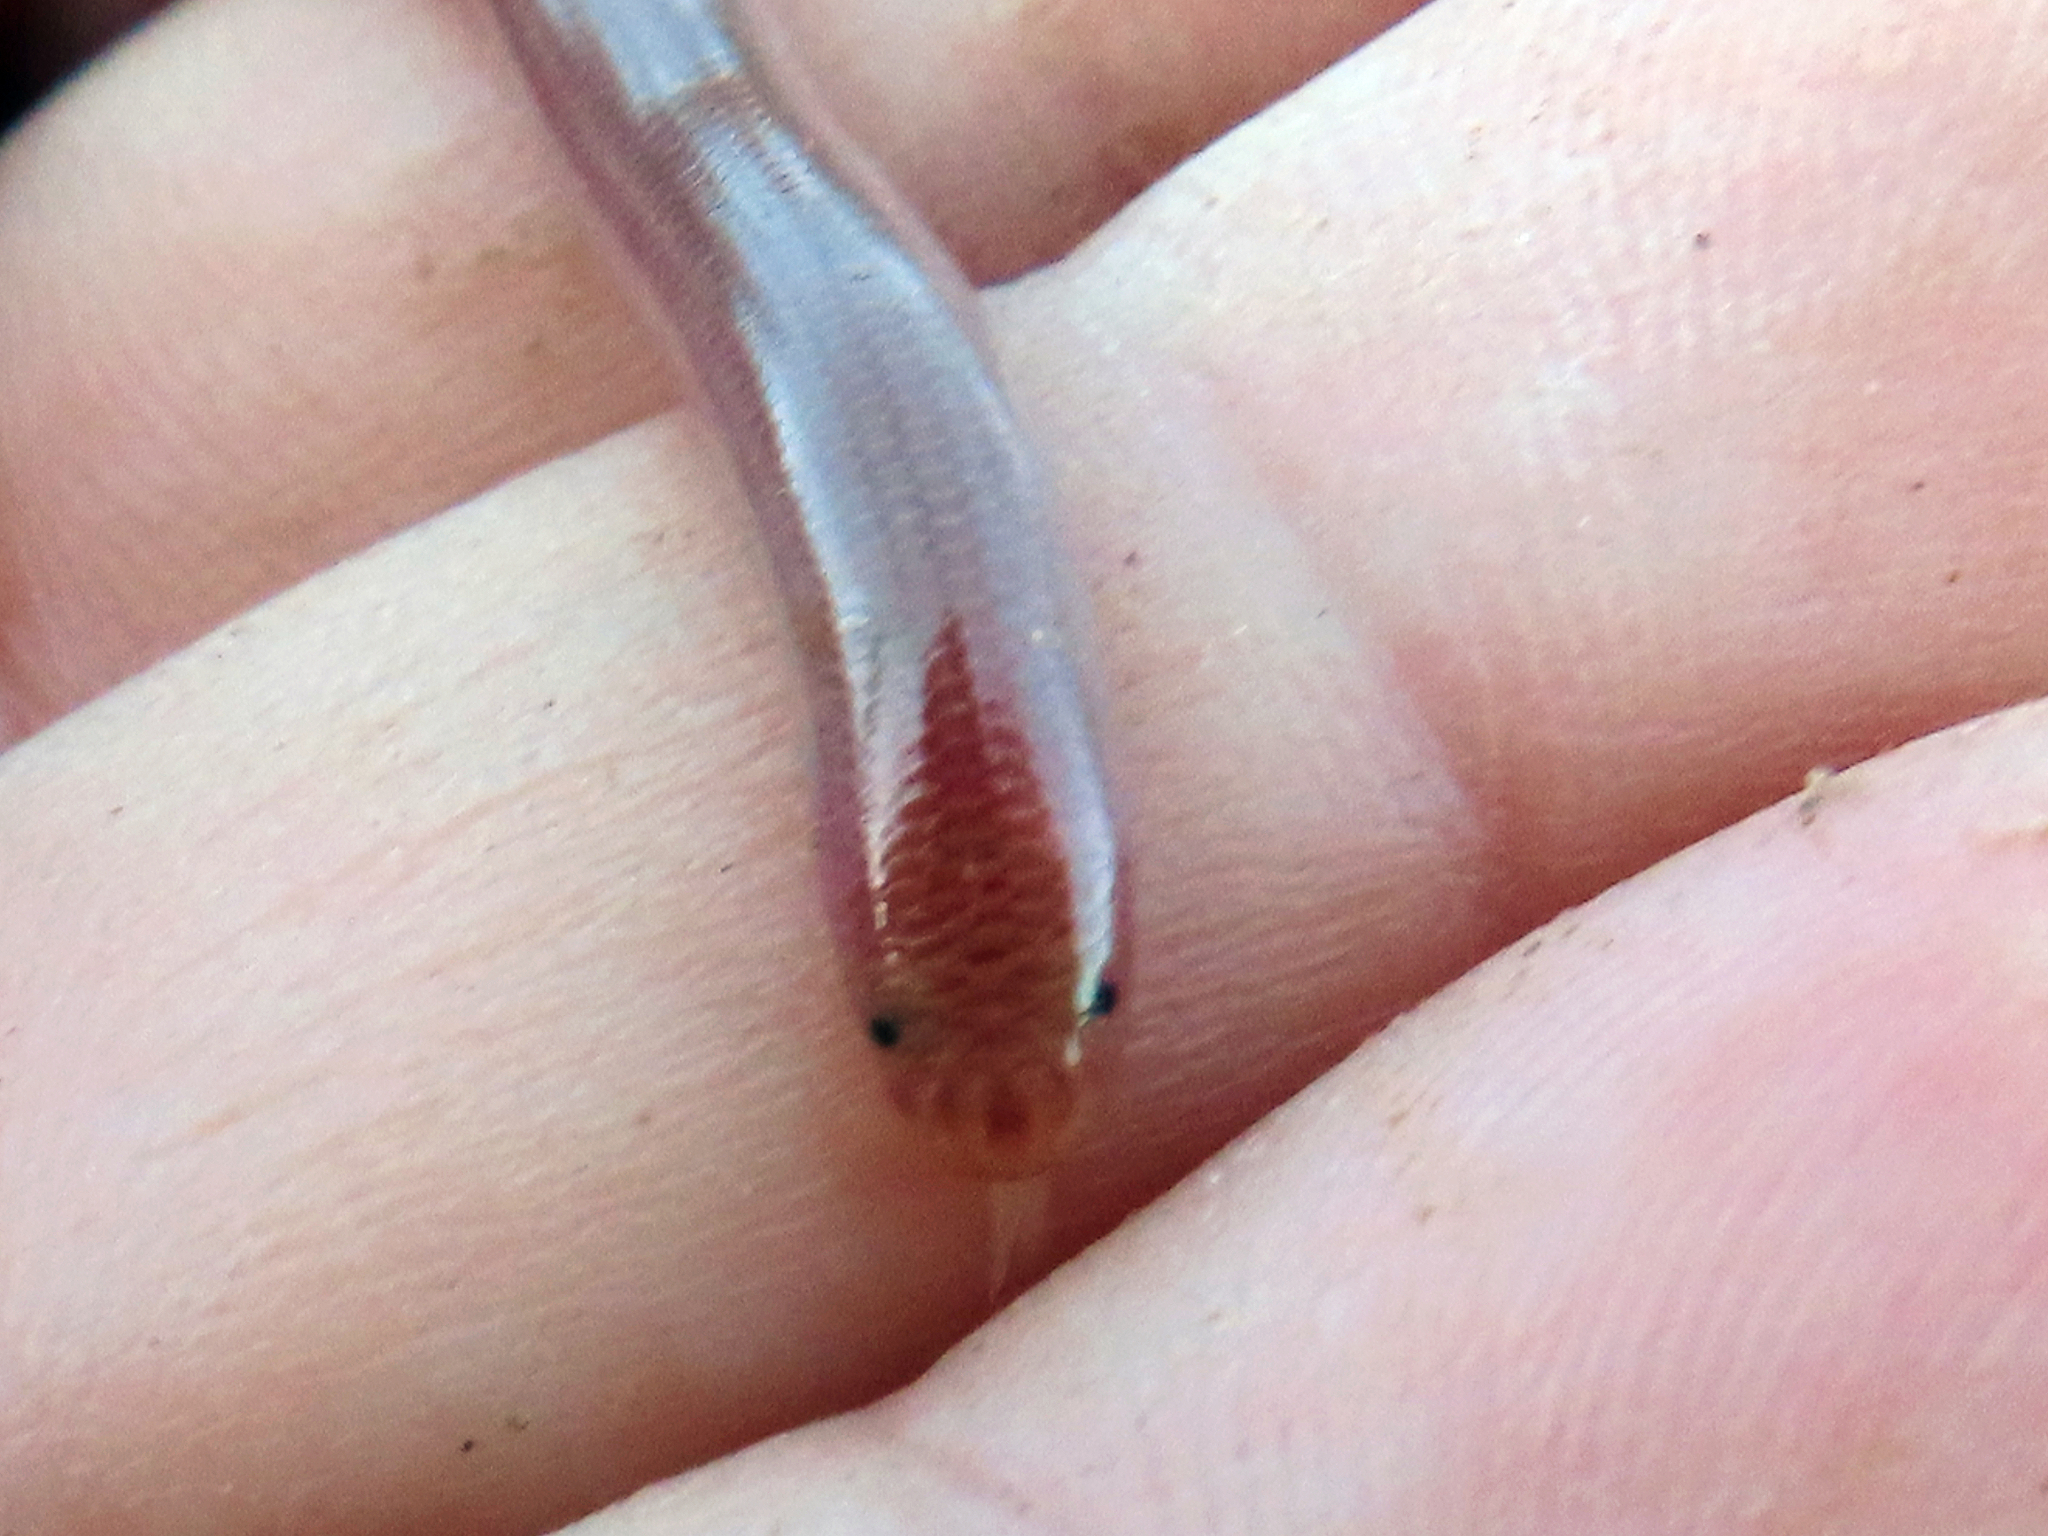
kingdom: Animalia
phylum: Chordata
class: Squamata
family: Typhlopidae
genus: Xerotyphlops
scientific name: Xerotyphlops vermicularis
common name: Eurasian blind snake
